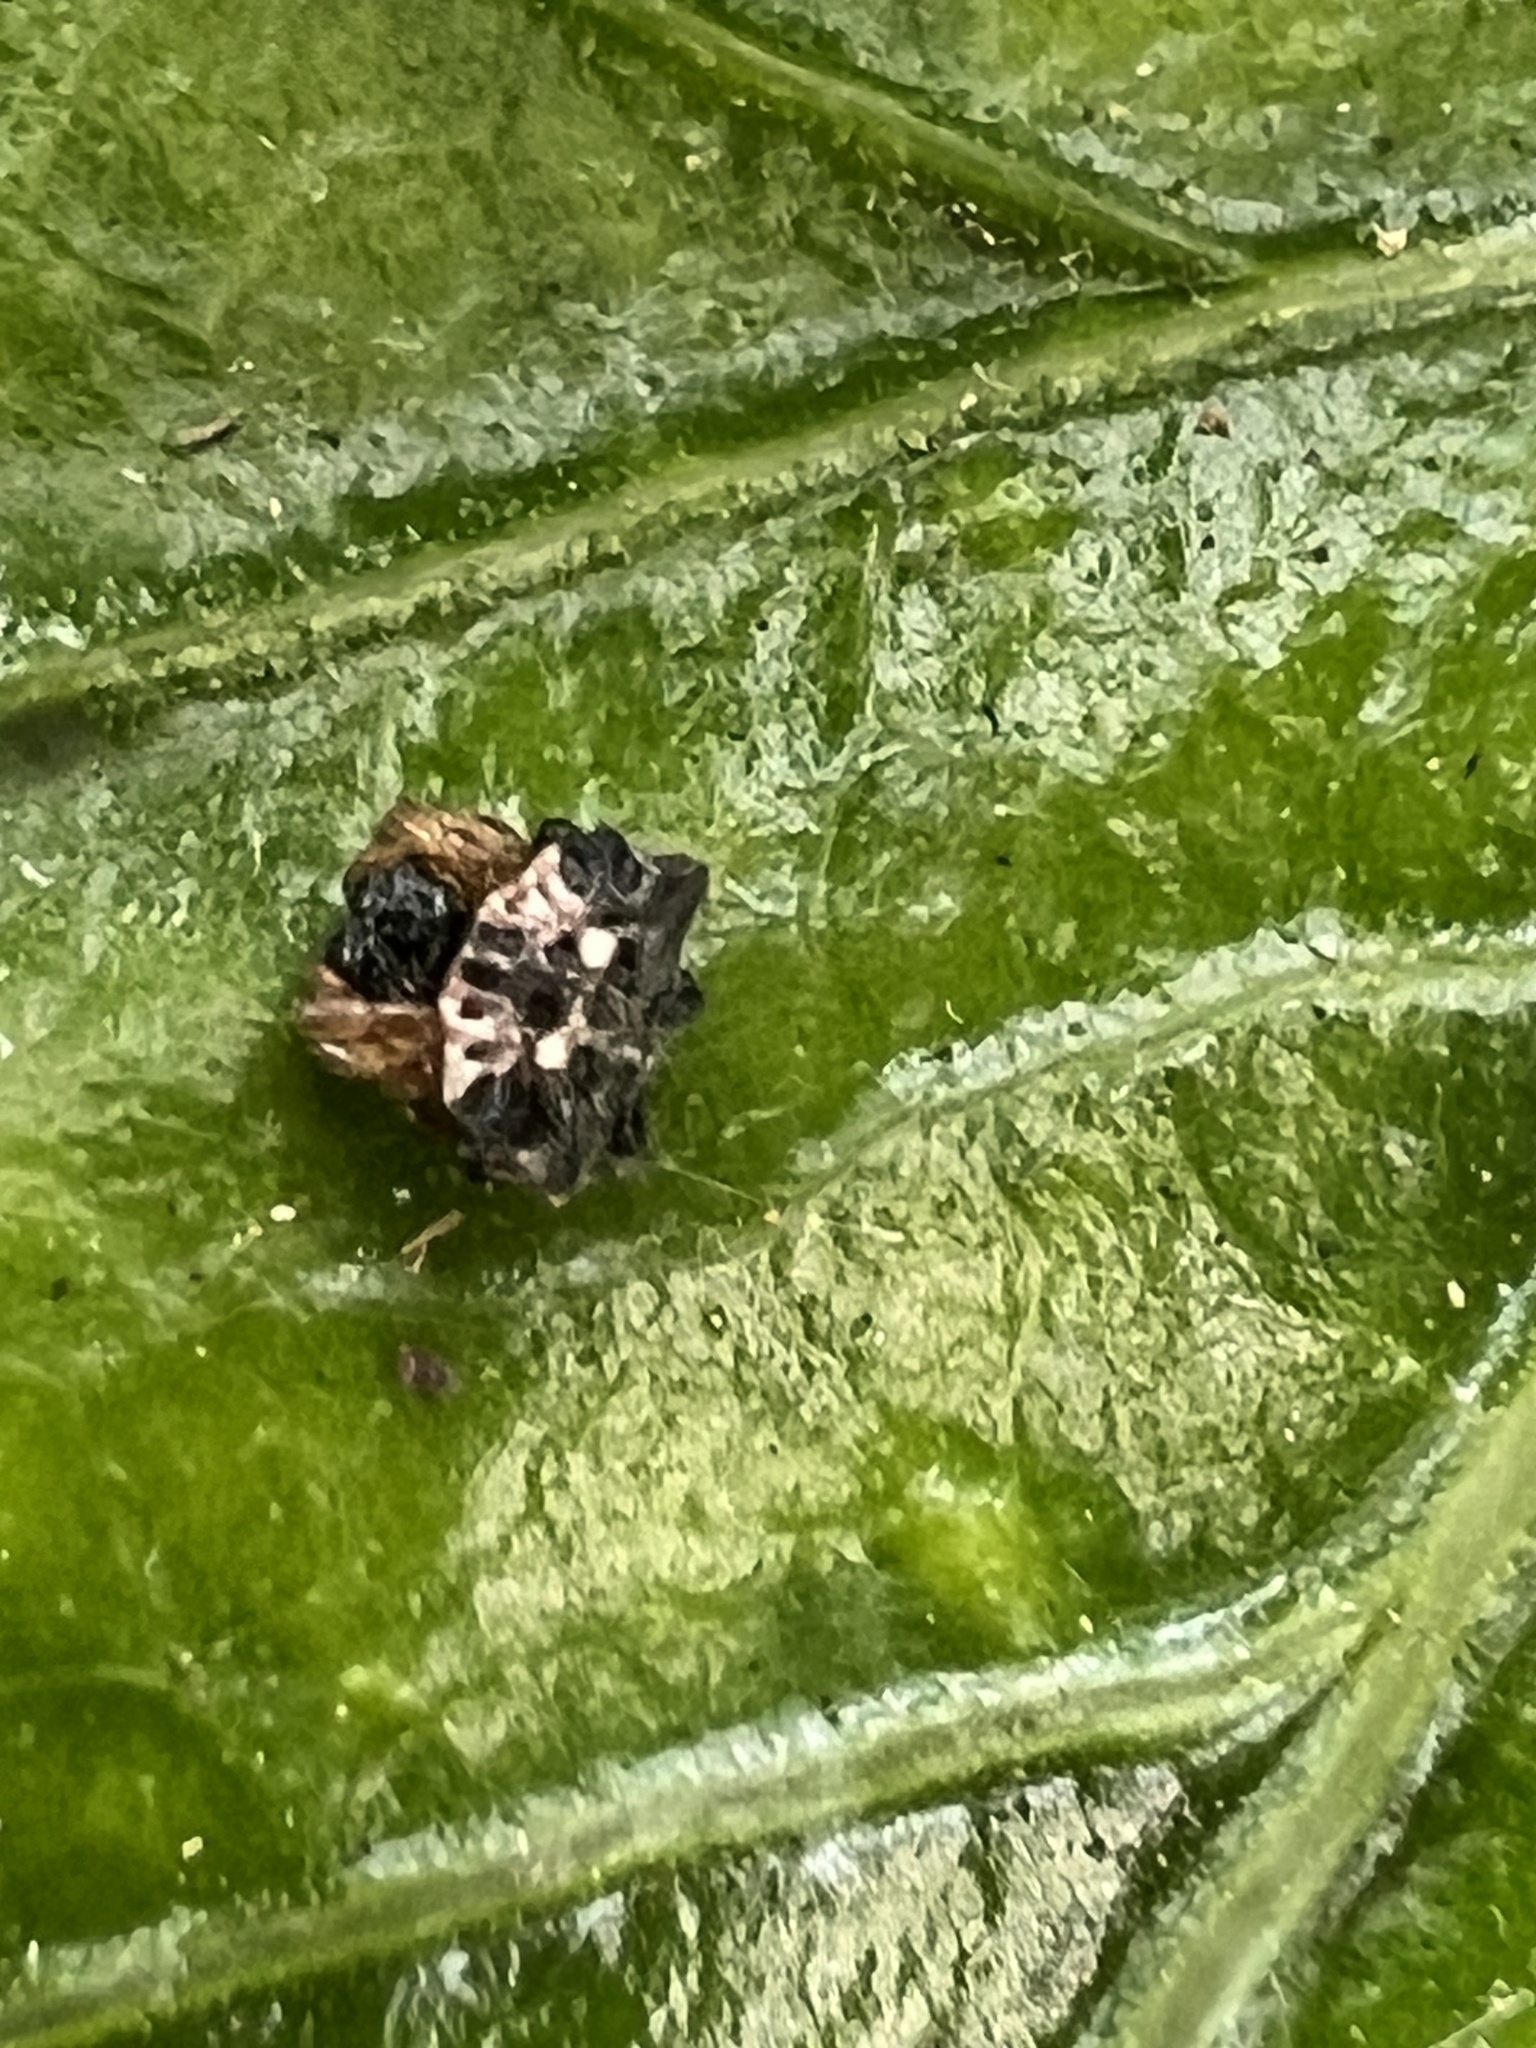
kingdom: Animalia
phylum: Arthropoda
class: Arachnida
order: Araneae
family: Araneidae
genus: Thelacantha
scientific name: Thelacantha brevispina
